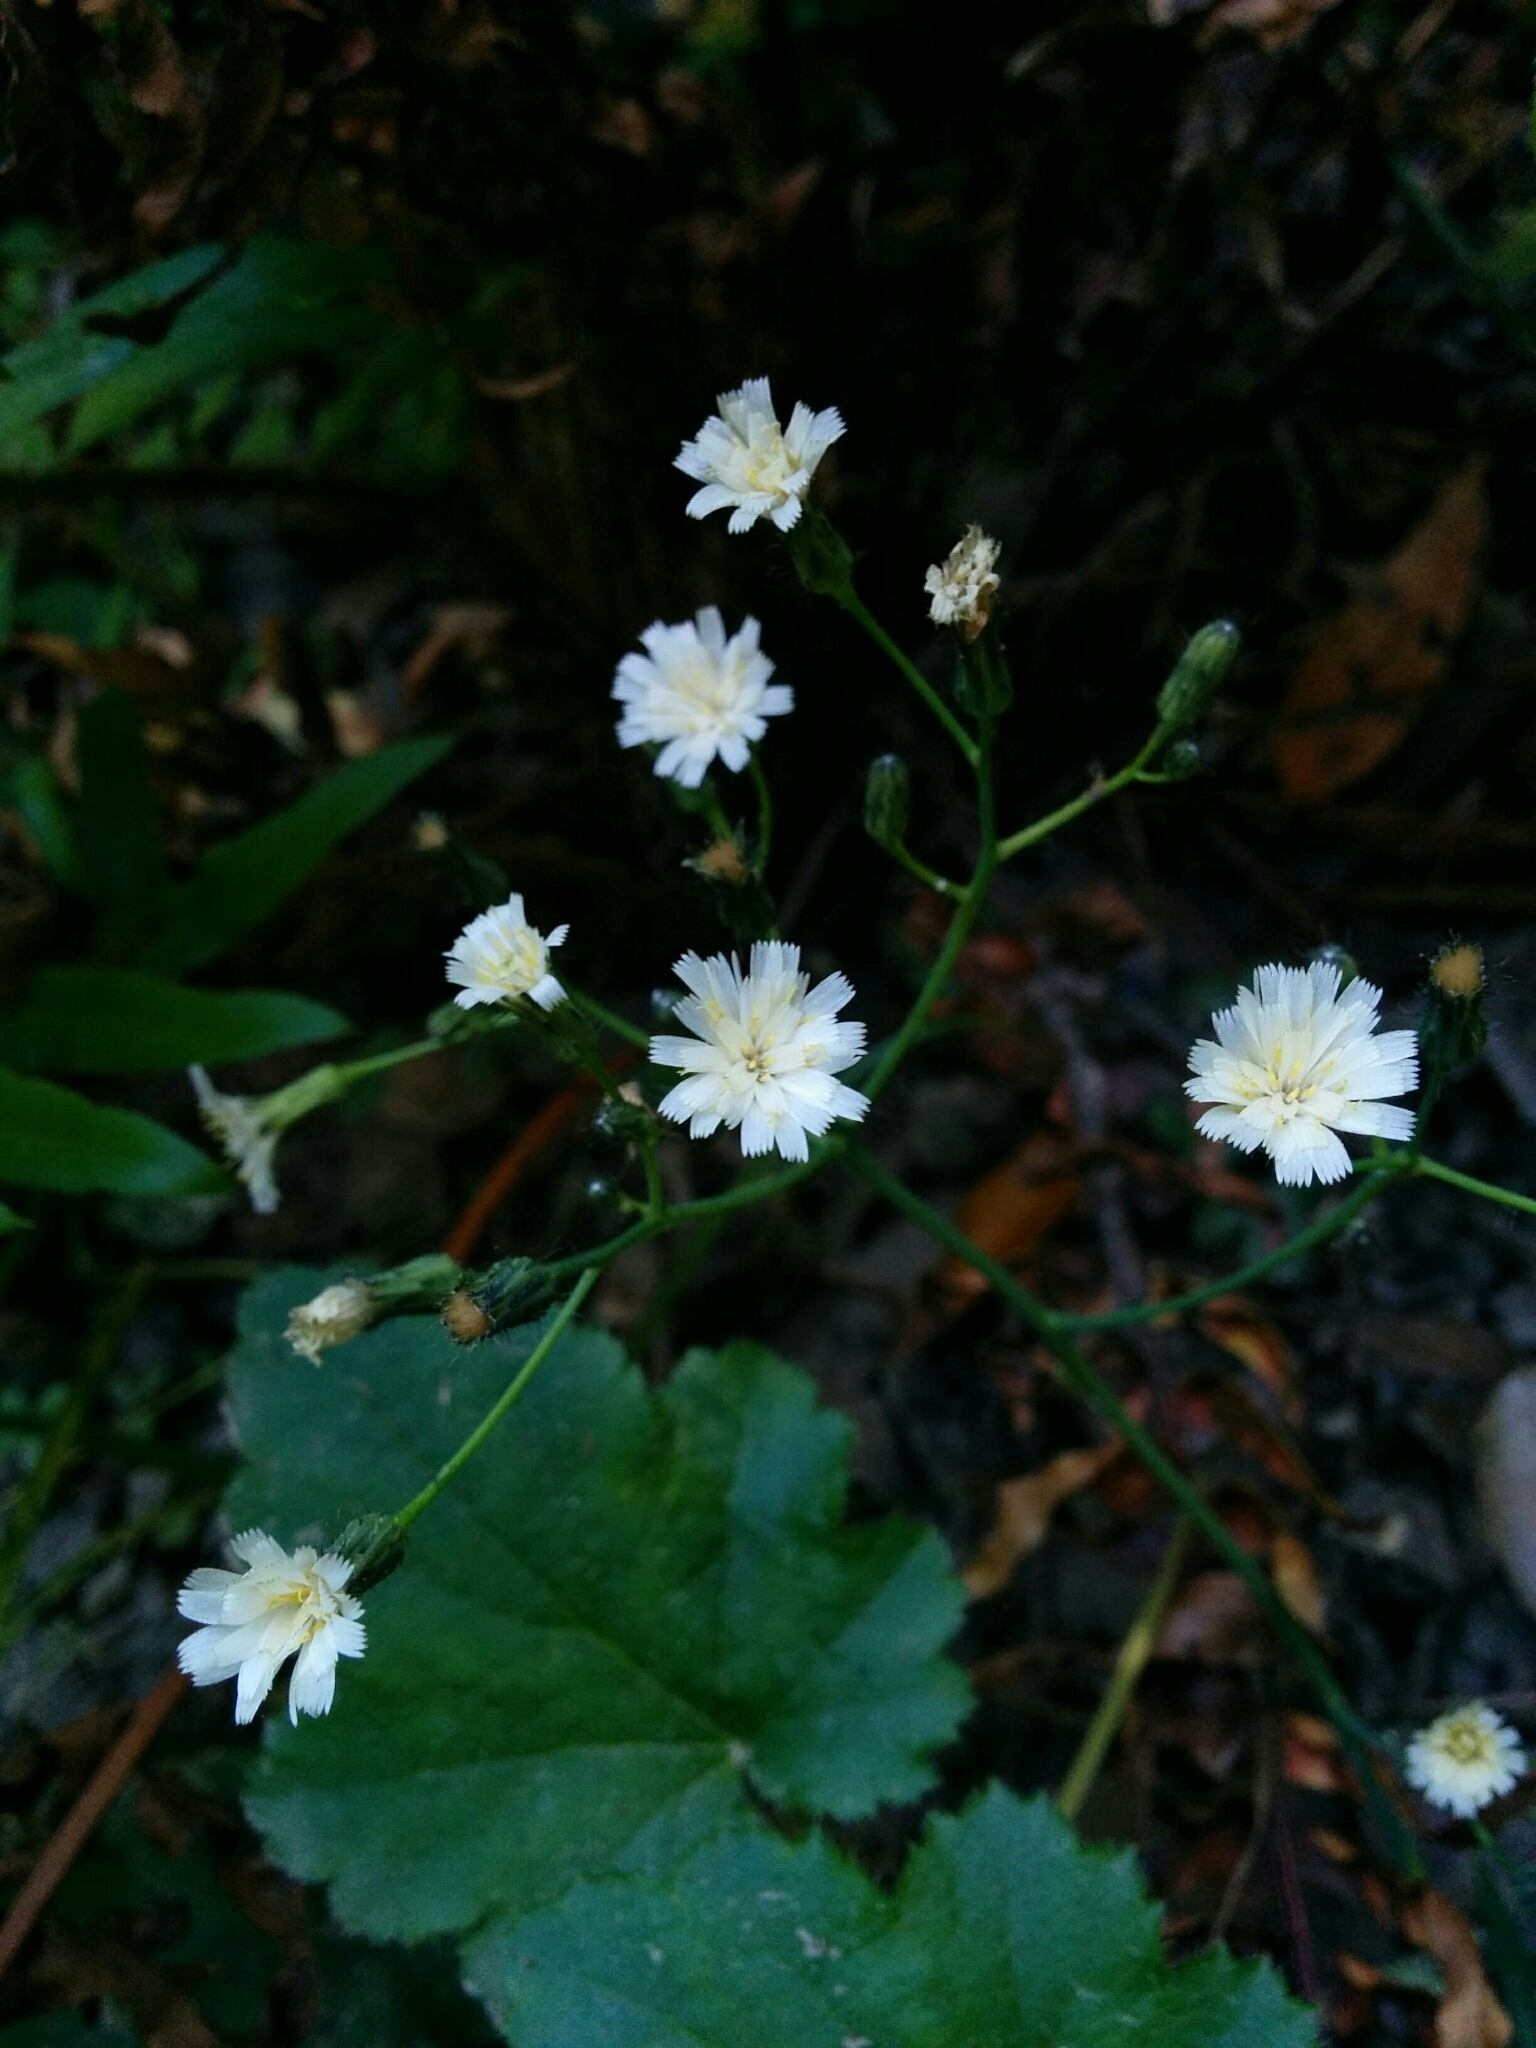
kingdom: Plantae
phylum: Tracheophyta
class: Magnoliopsida
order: Asterales
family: Asteraceae
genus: Hieracium
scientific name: Hieracium albiflorum
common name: White hawkweed
